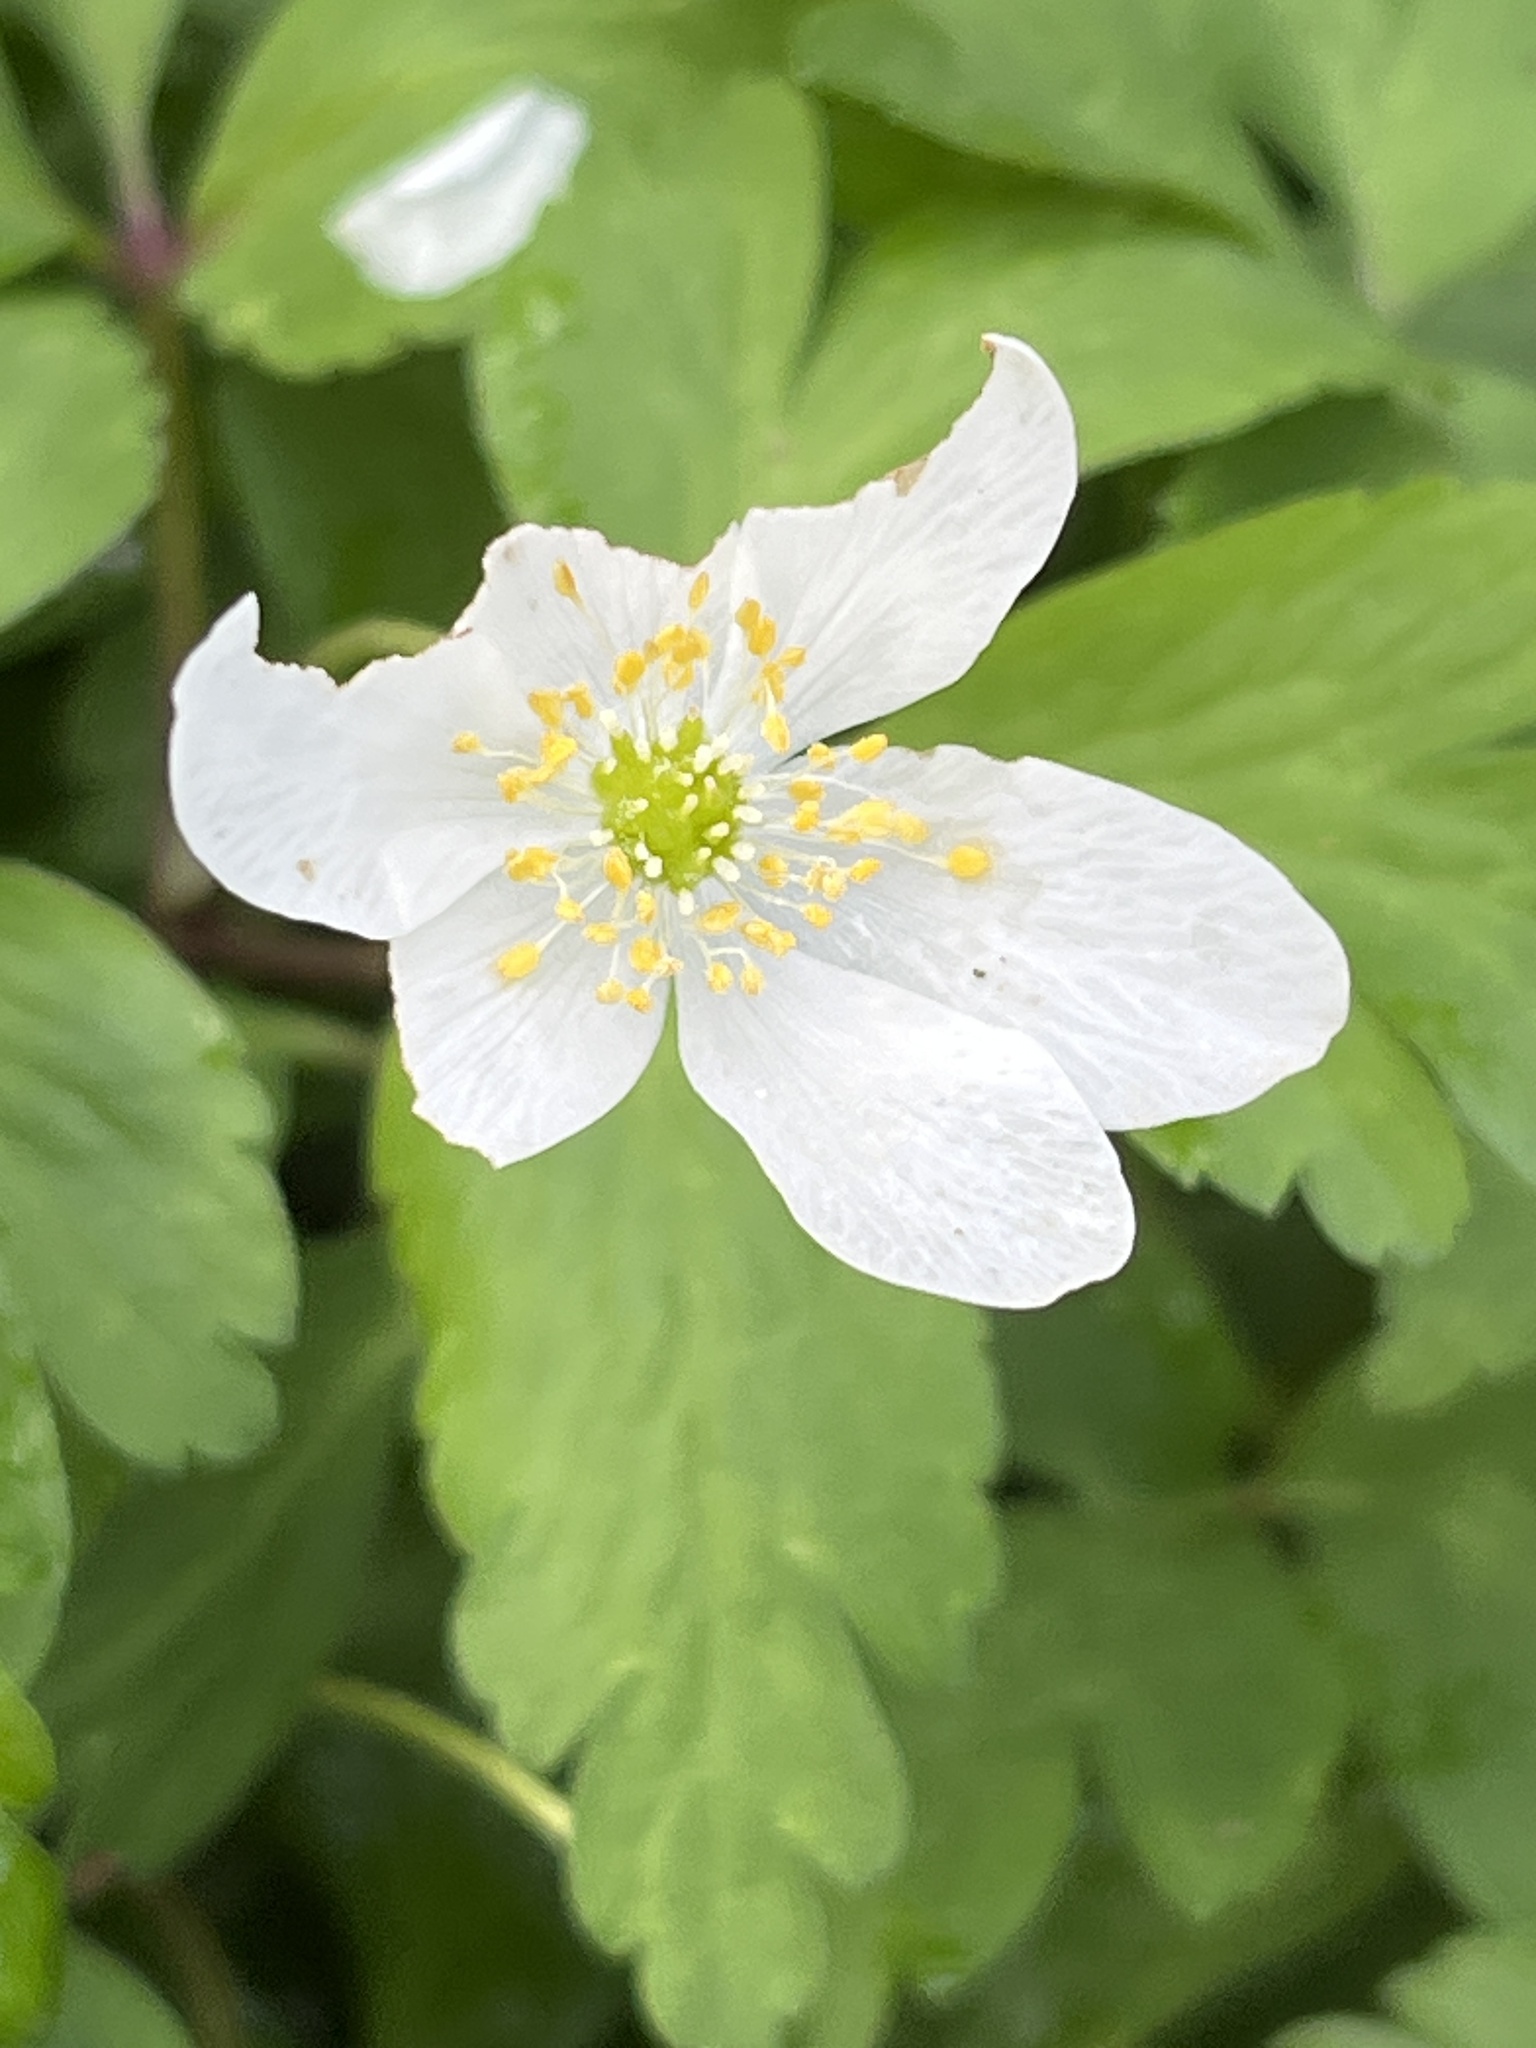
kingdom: Plantae
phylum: Tracheophyta
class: Magnoliopsida
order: Ranunculales
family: Ranunculaceae
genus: Anemone
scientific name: Anemone nemorosa
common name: Wood anemone
